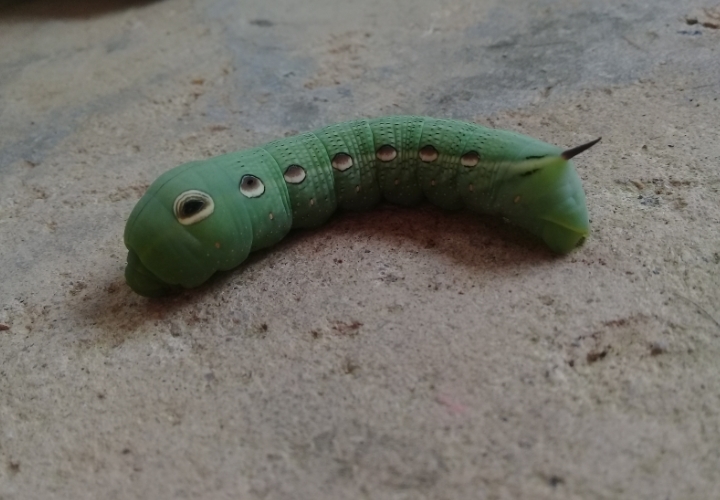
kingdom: Animalia
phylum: Arthropoda
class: Insecta
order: Lepidoptera
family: Sphingidae
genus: Xylophanes
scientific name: Xylophanes tersa
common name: Tersa sphinx
